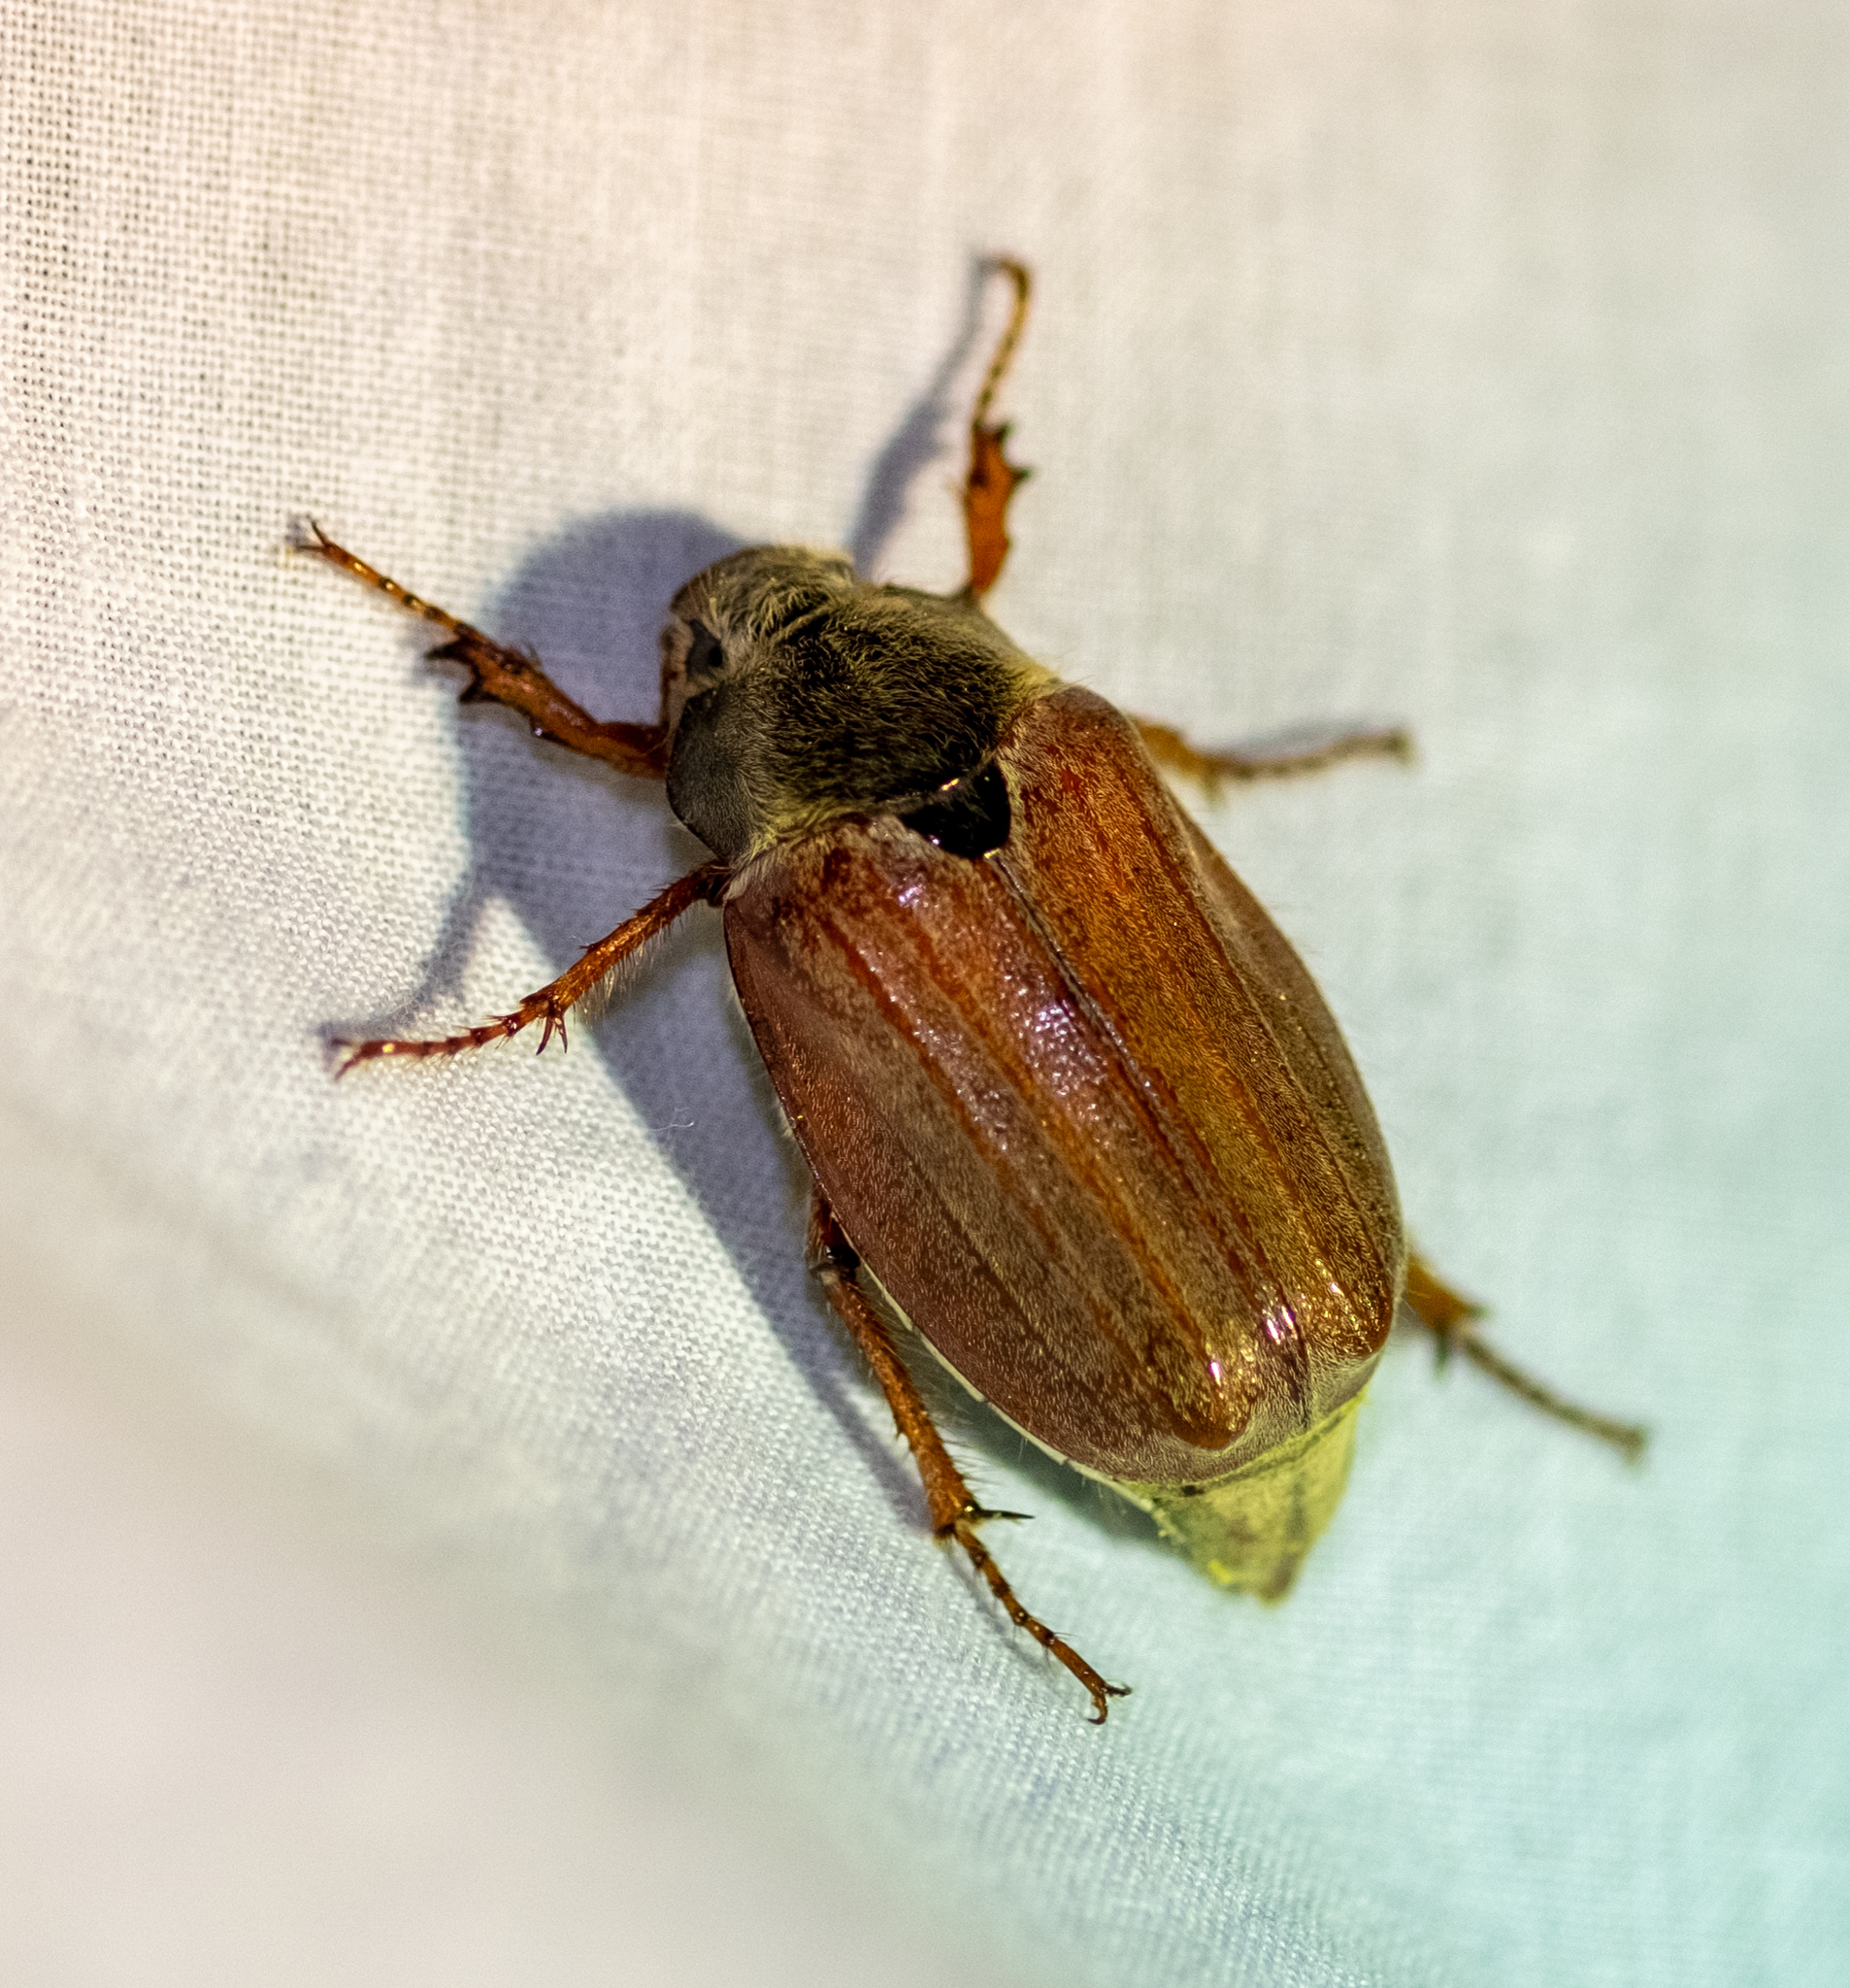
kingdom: Animalia
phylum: Arthropoda
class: Insecta
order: Coleoptera
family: Scarabaeidae
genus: Melolontha
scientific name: Melolontha melolontha
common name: Cockchafer maybeetle
